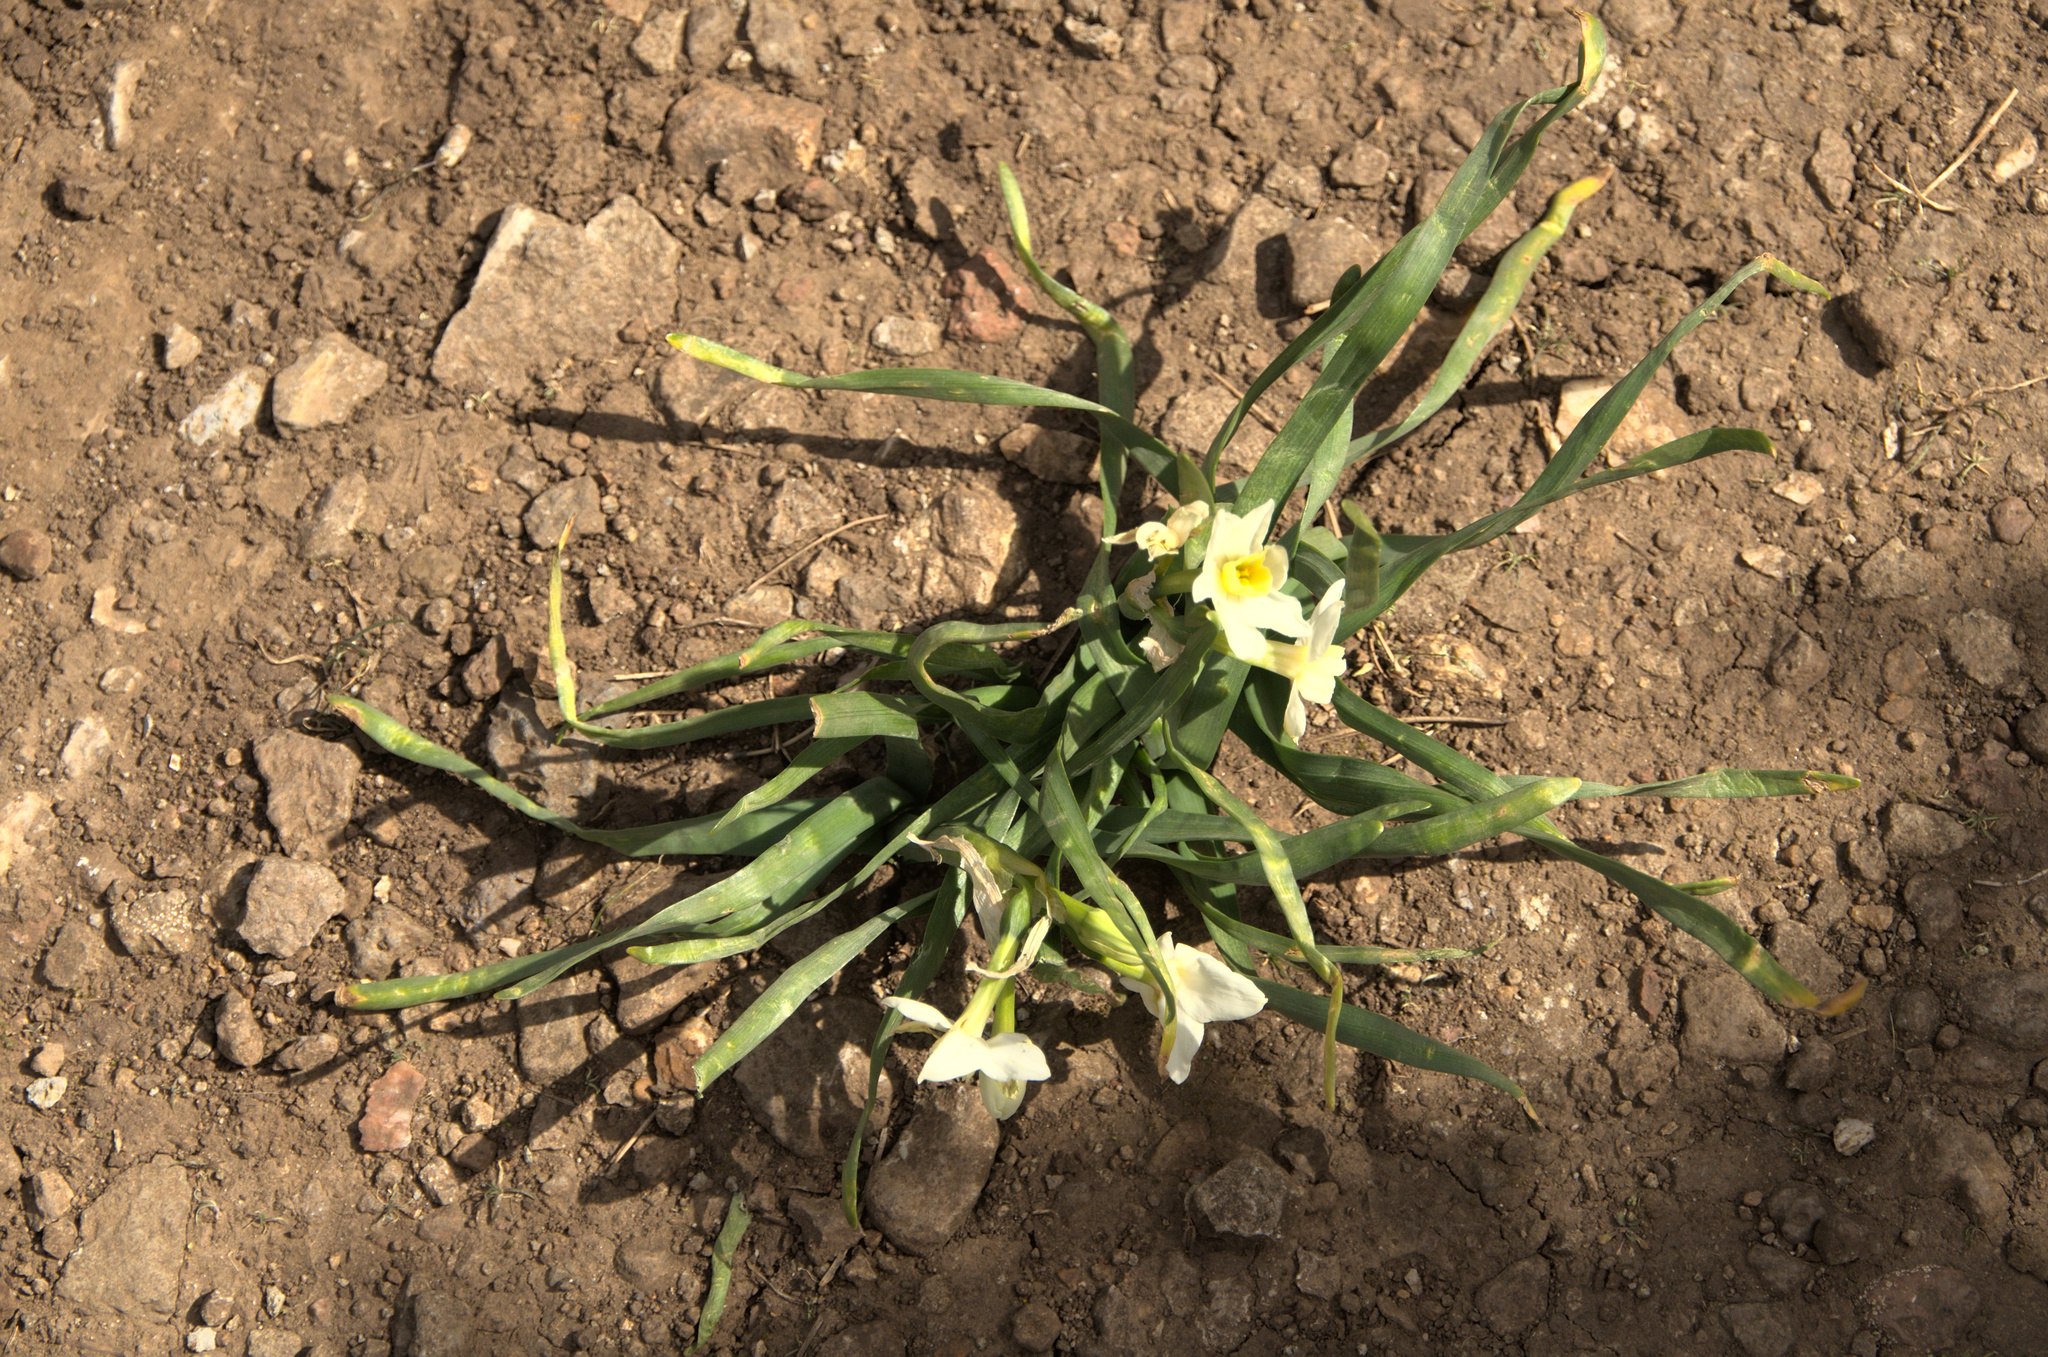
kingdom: Plantae
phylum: Tracheophyta
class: Liliopsida
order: Asparagales
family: Amaryllidaceae
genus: Narcissus
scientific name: Narcissus tazetta
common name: Bunch-flowered daffodil
